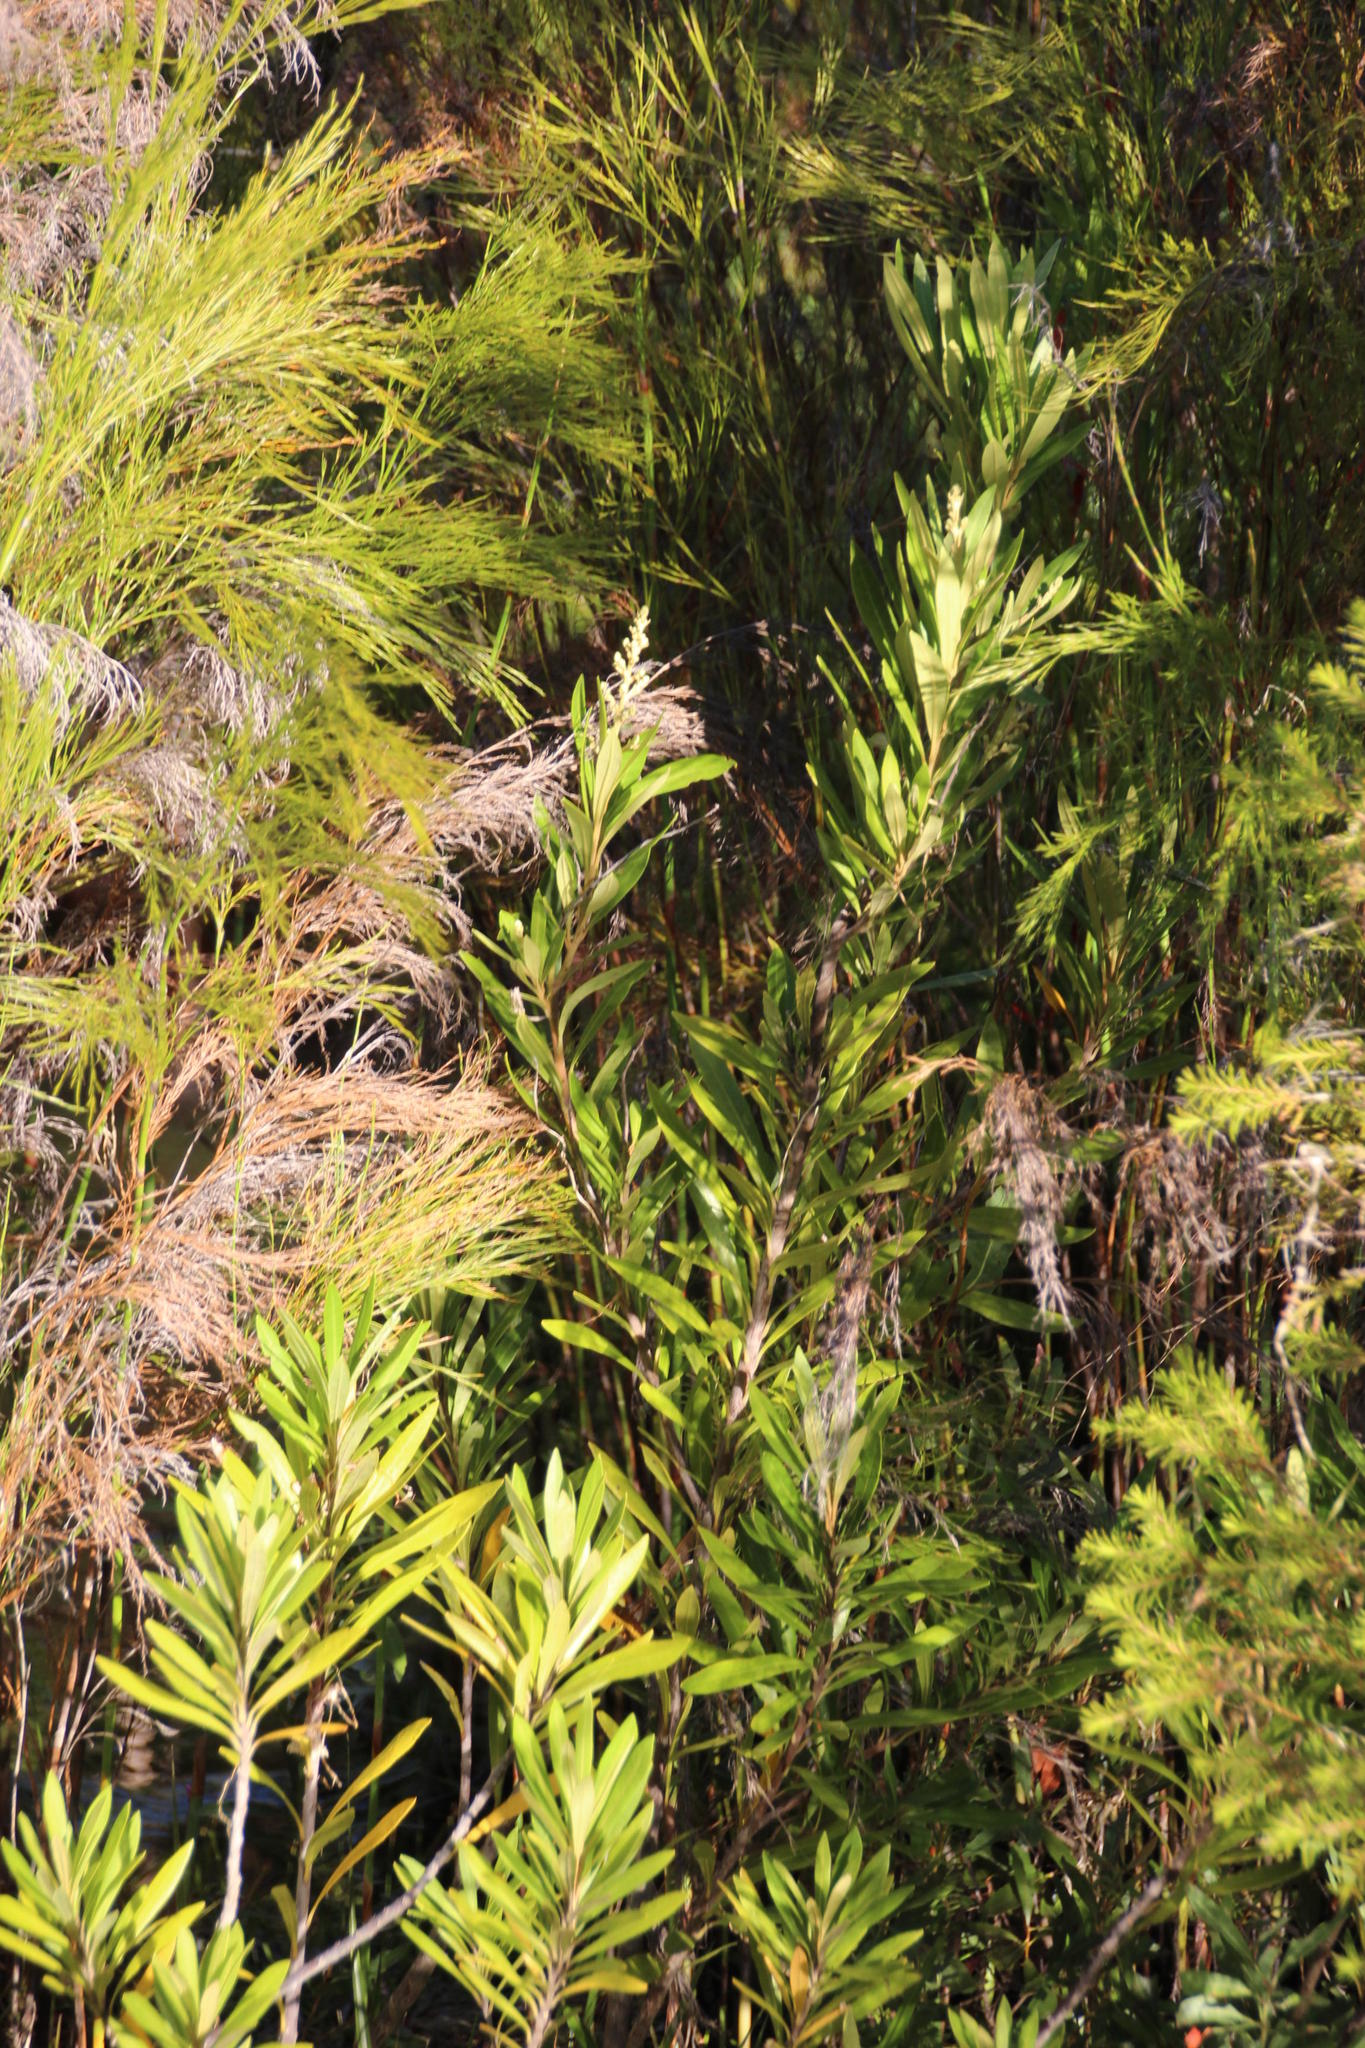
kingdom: Plantae
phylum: Tracheophyta
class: Magnoliopsida
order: Asterales
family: Asteraceae
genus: Brachylaena
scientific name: Brachylaena neriifolia
